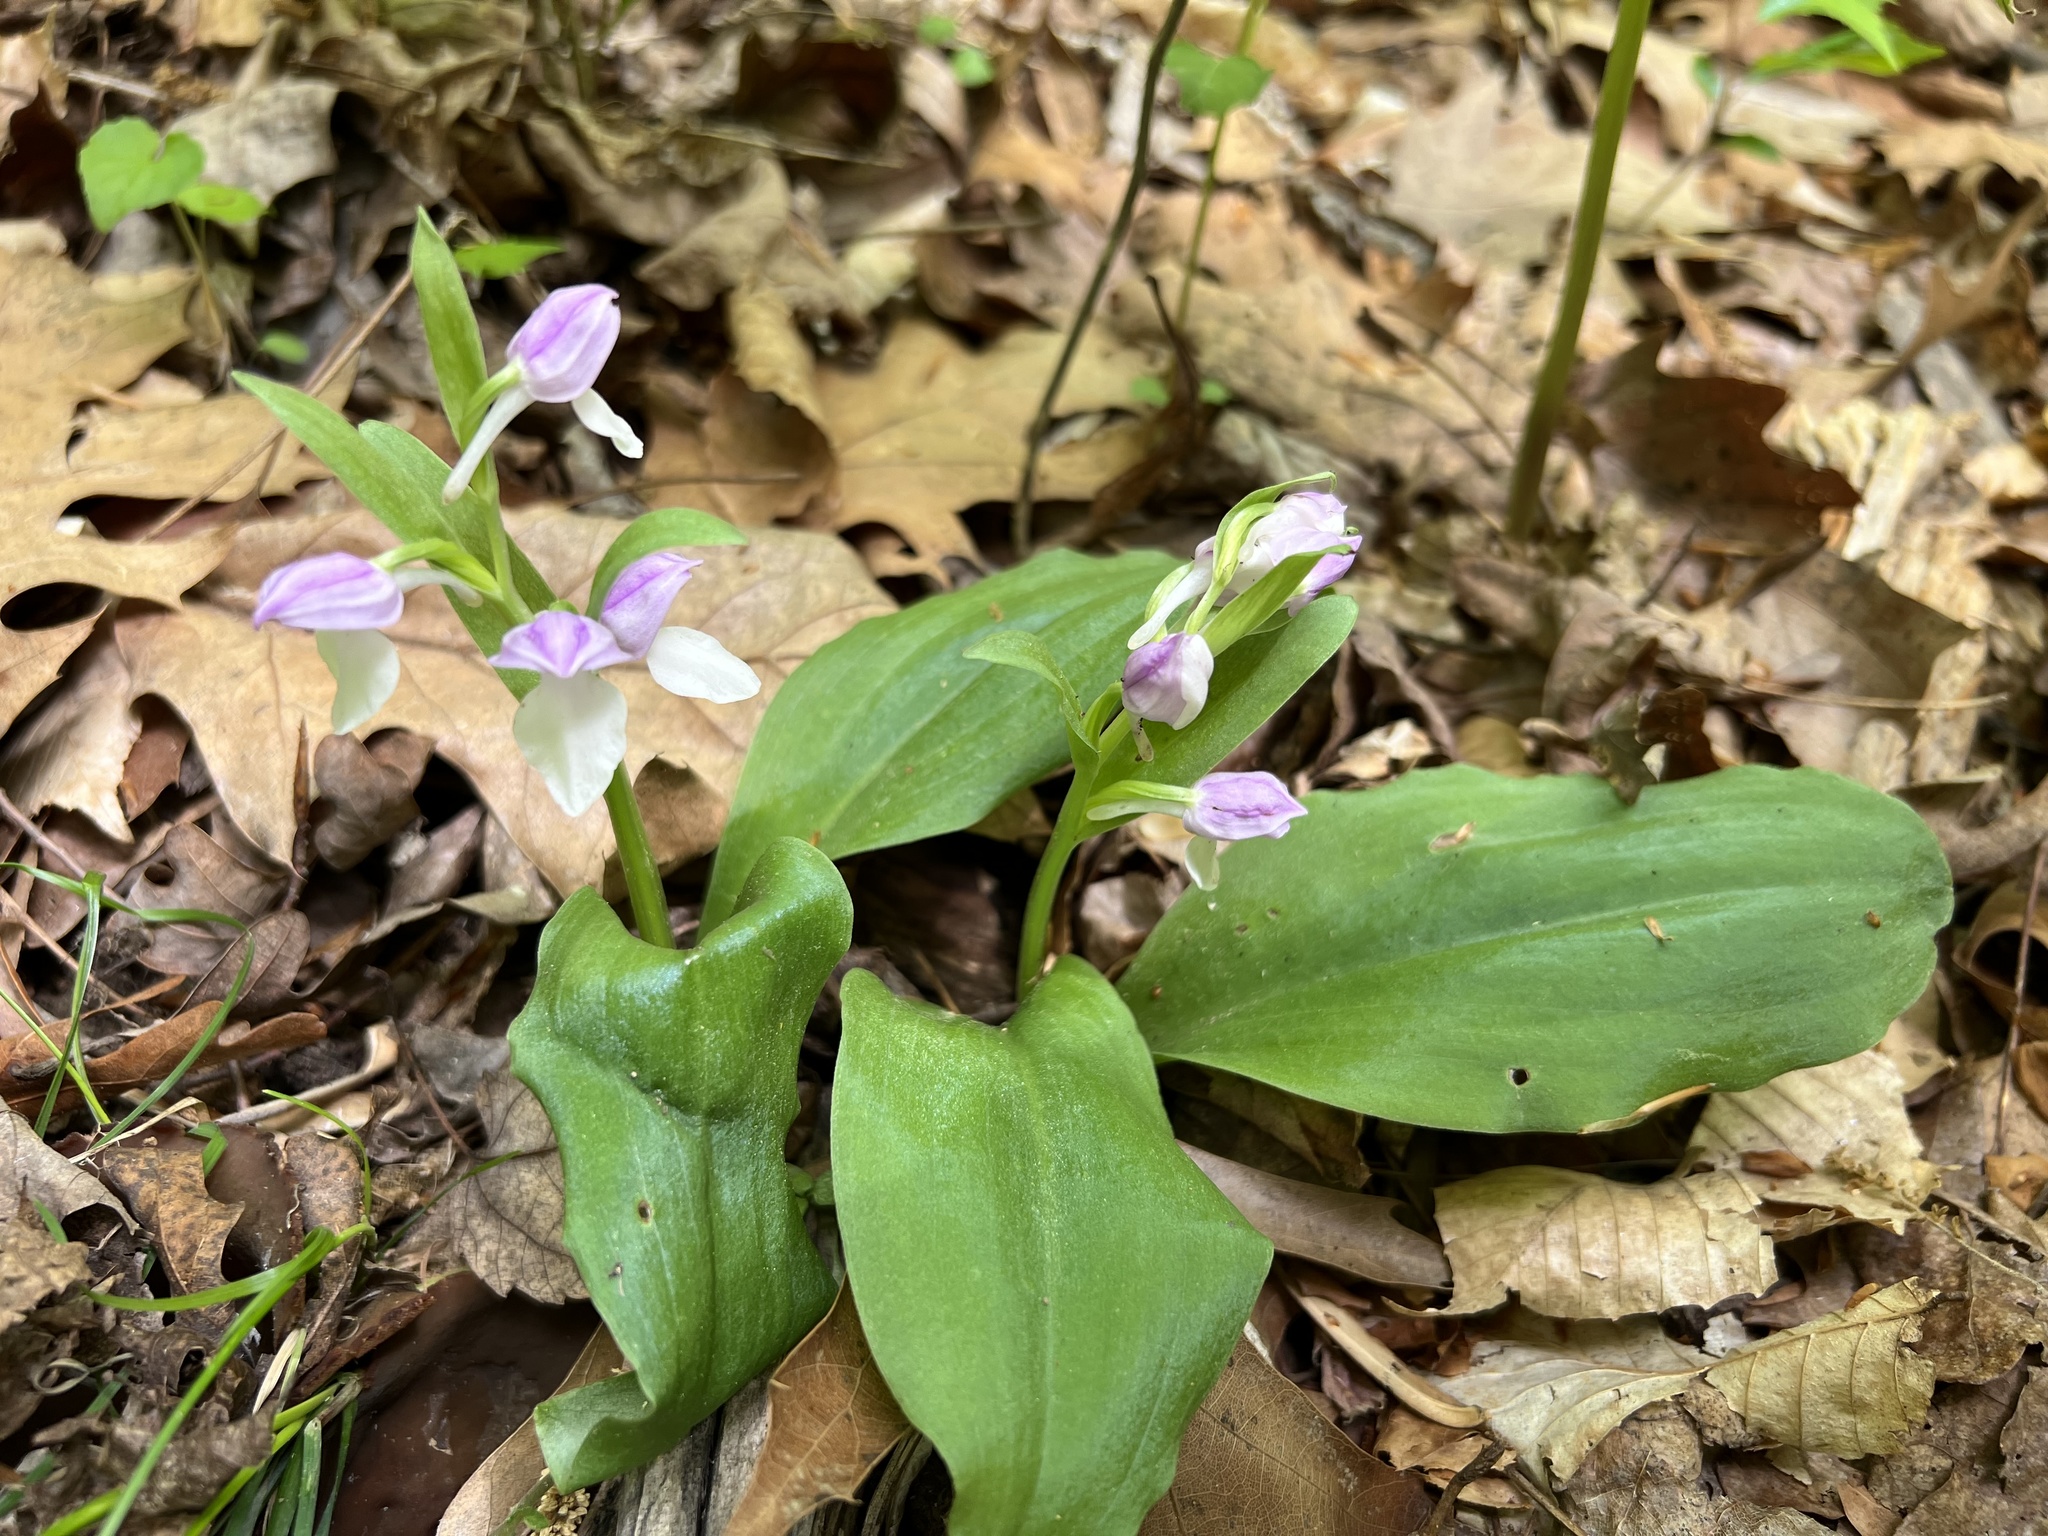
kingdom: Plantae
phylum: Tracheophyta
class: Liliopsida
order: Asparagales
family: Orchidaceae
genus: Galearis
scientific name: Galearis spectabilis
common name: Purple-hooded orchis
